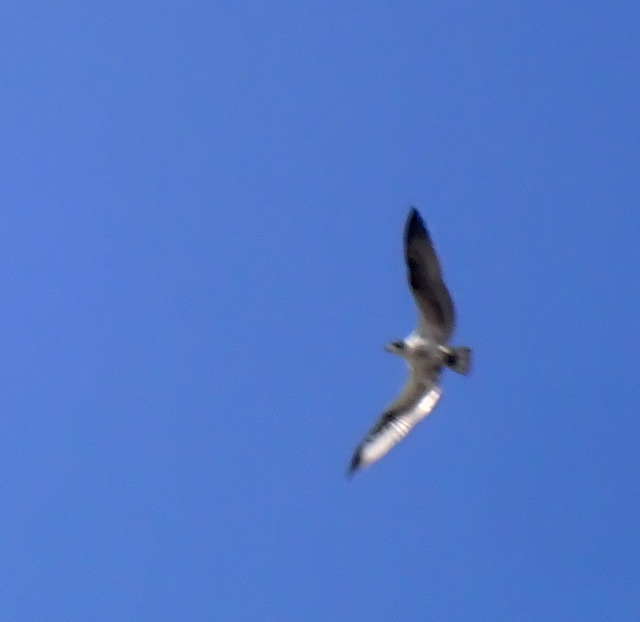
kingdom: Animalia
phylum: Chordata
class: Aves
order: Accipitriformes
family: Pandionidae
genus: Pandion
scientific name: Pandion haliaetus
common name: Osprey
